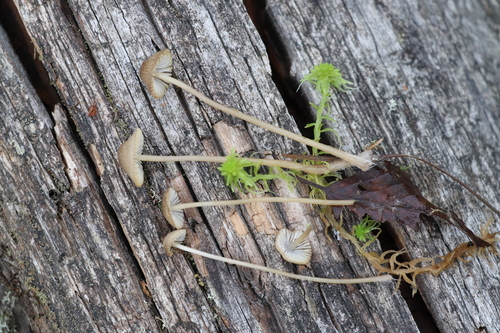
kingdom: Fungi
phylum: Basidiomycota
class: Agaricomycetes
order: Agaricales
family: Mycenaceae
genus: Mycena
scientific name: Mycena stipata
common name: Clustered pine bonnet
